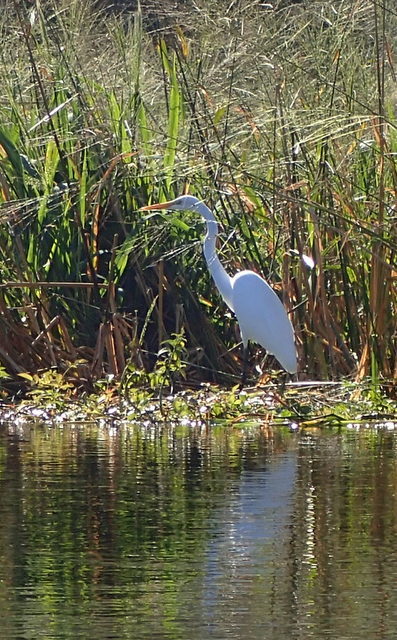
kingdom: Animalia
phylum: Chordata
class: Aves
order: Pelecaniformes
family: Ardeidae
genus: Ardea
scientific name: Ardea alba
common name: Great egret
